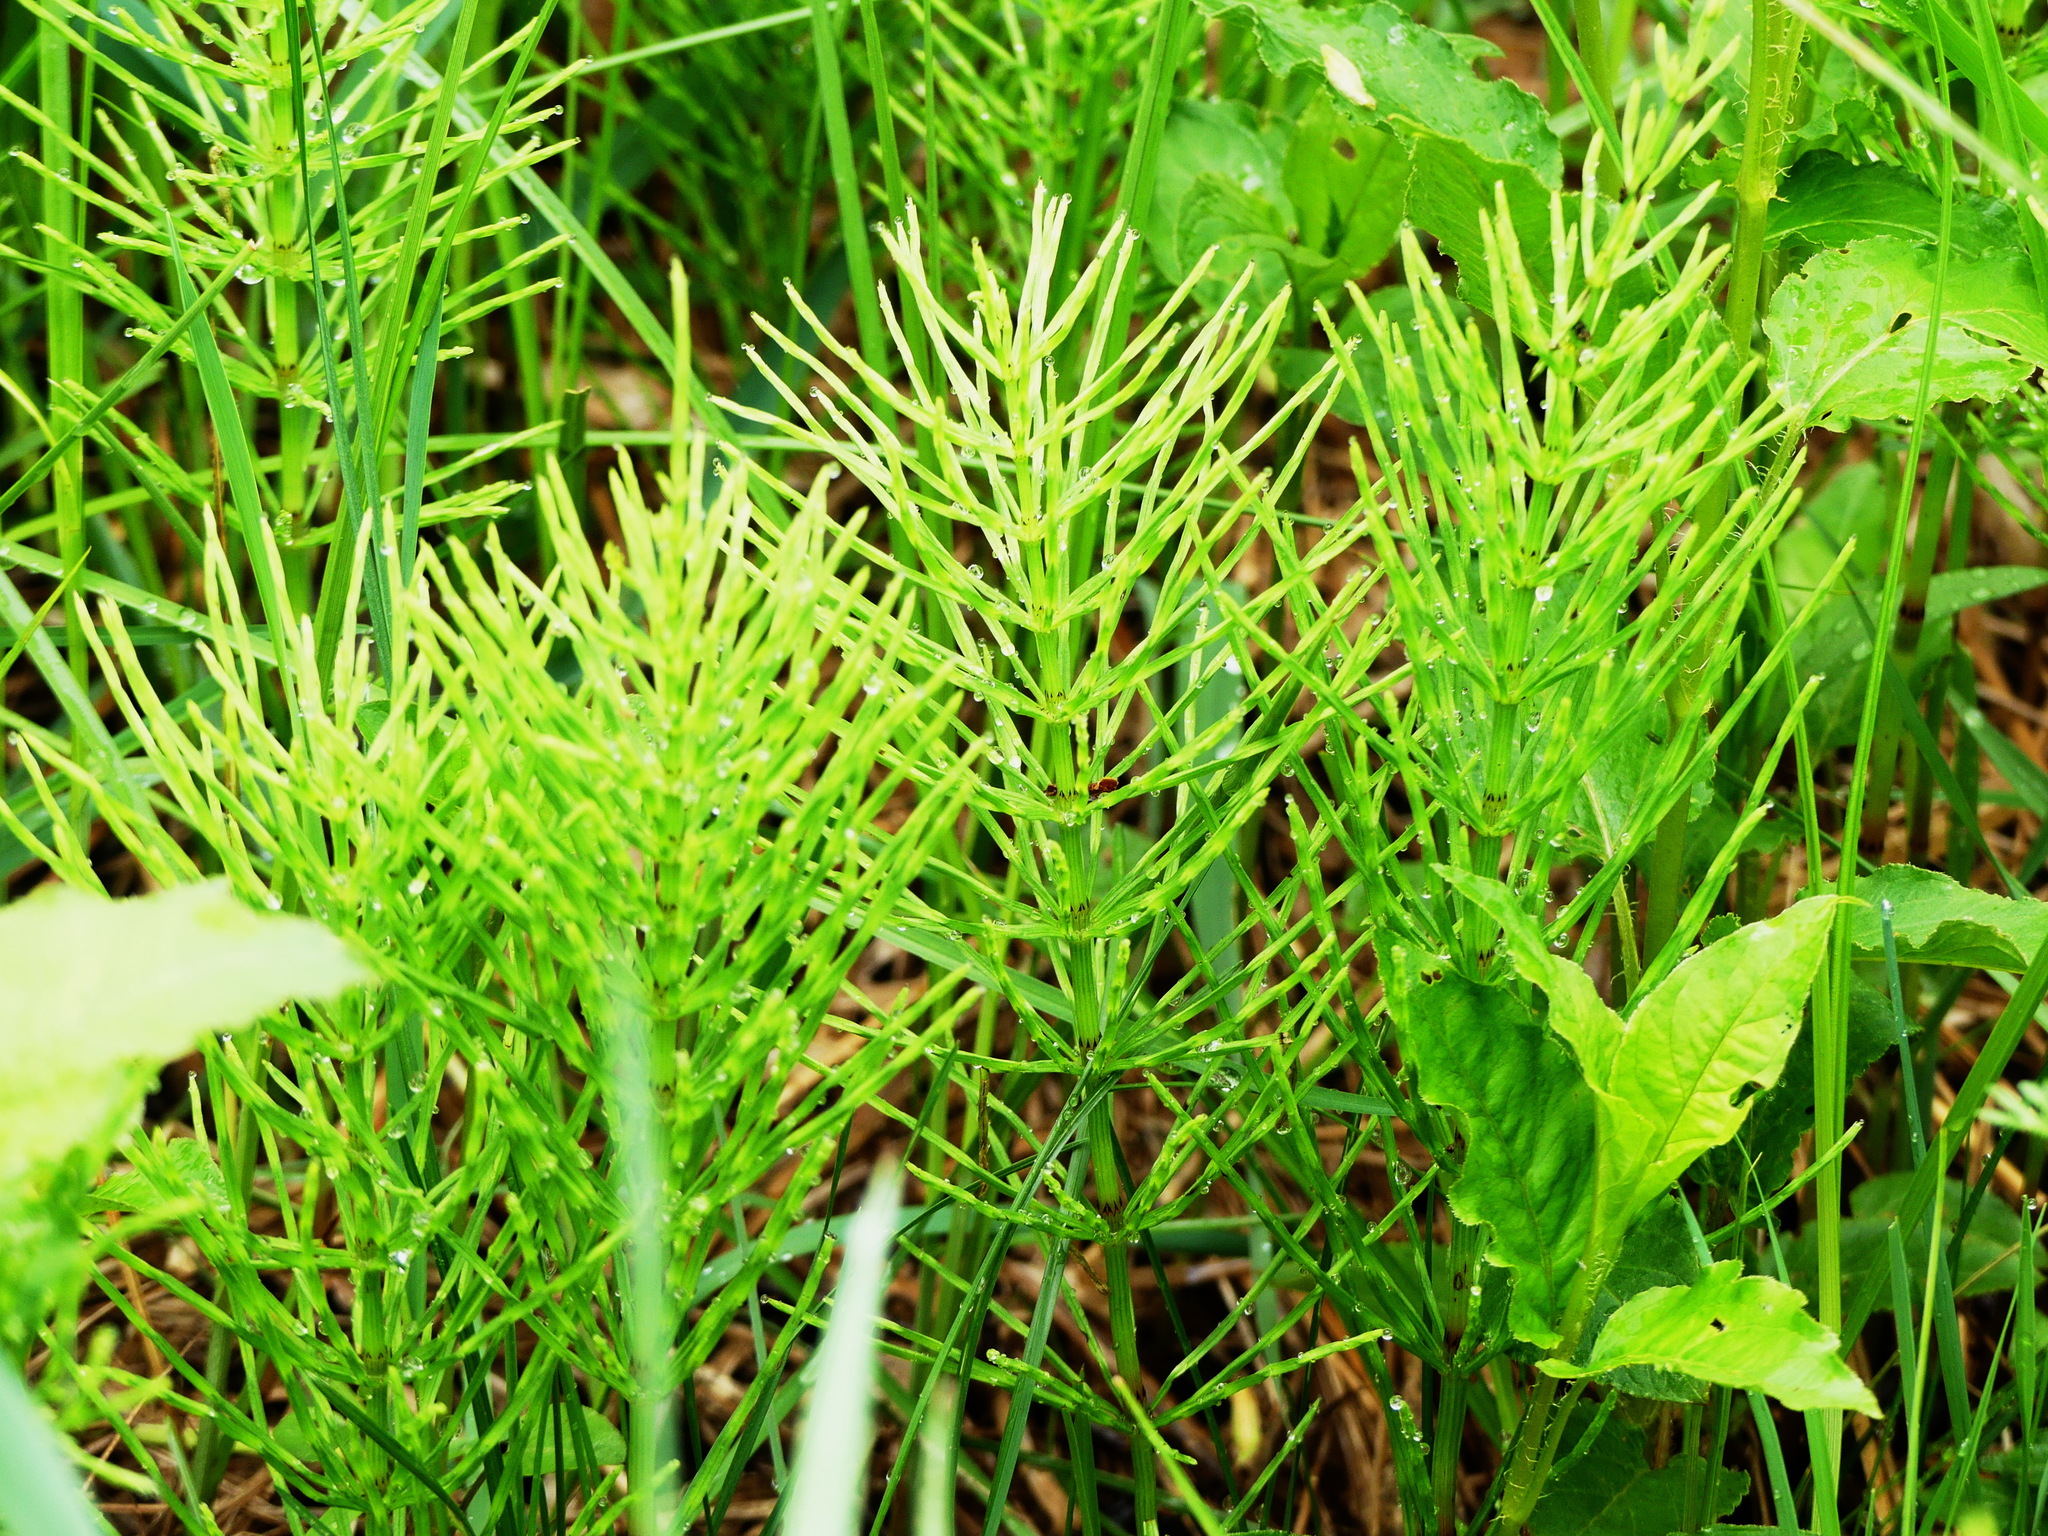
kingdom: Plantae
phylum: Tracheophyta
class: Polypodiopsida
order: Equisetales
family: Equisetaceae
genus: Equisetum
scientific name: Equisetum arvense
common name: Field horsetail
